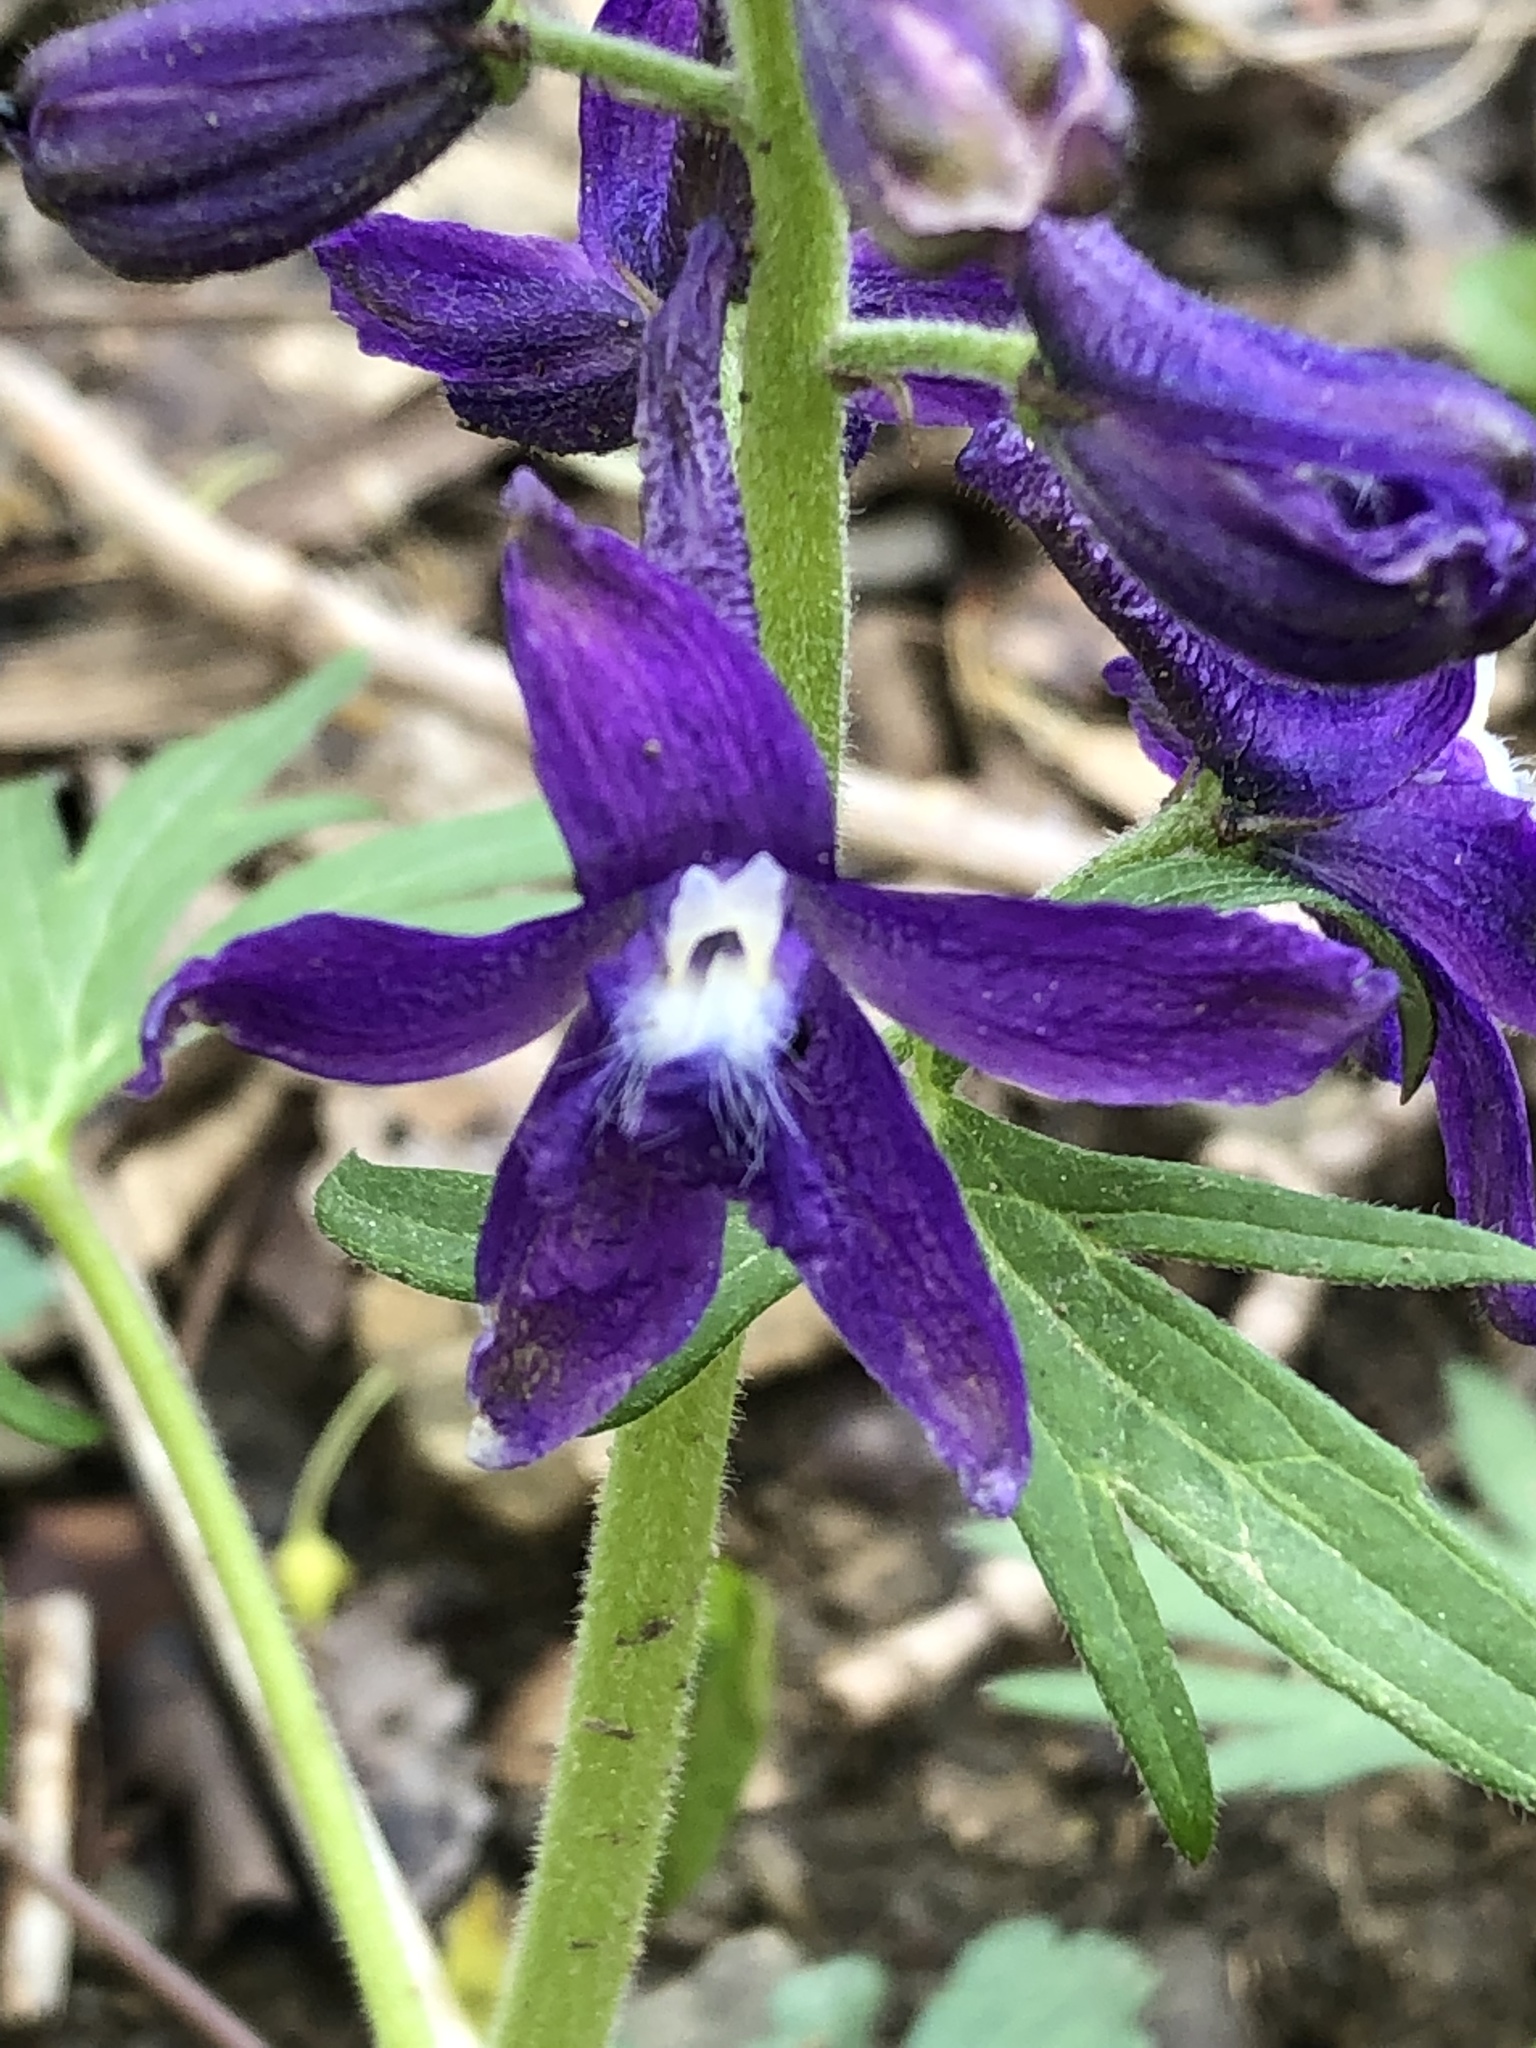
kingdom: Plantae
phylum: Tracheophyta
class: Magnoliopsida
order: Ranunculales
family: Ranunculaceae
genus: Delphinium
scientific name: Delphinium tricorne
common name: Dwarf larkspur
